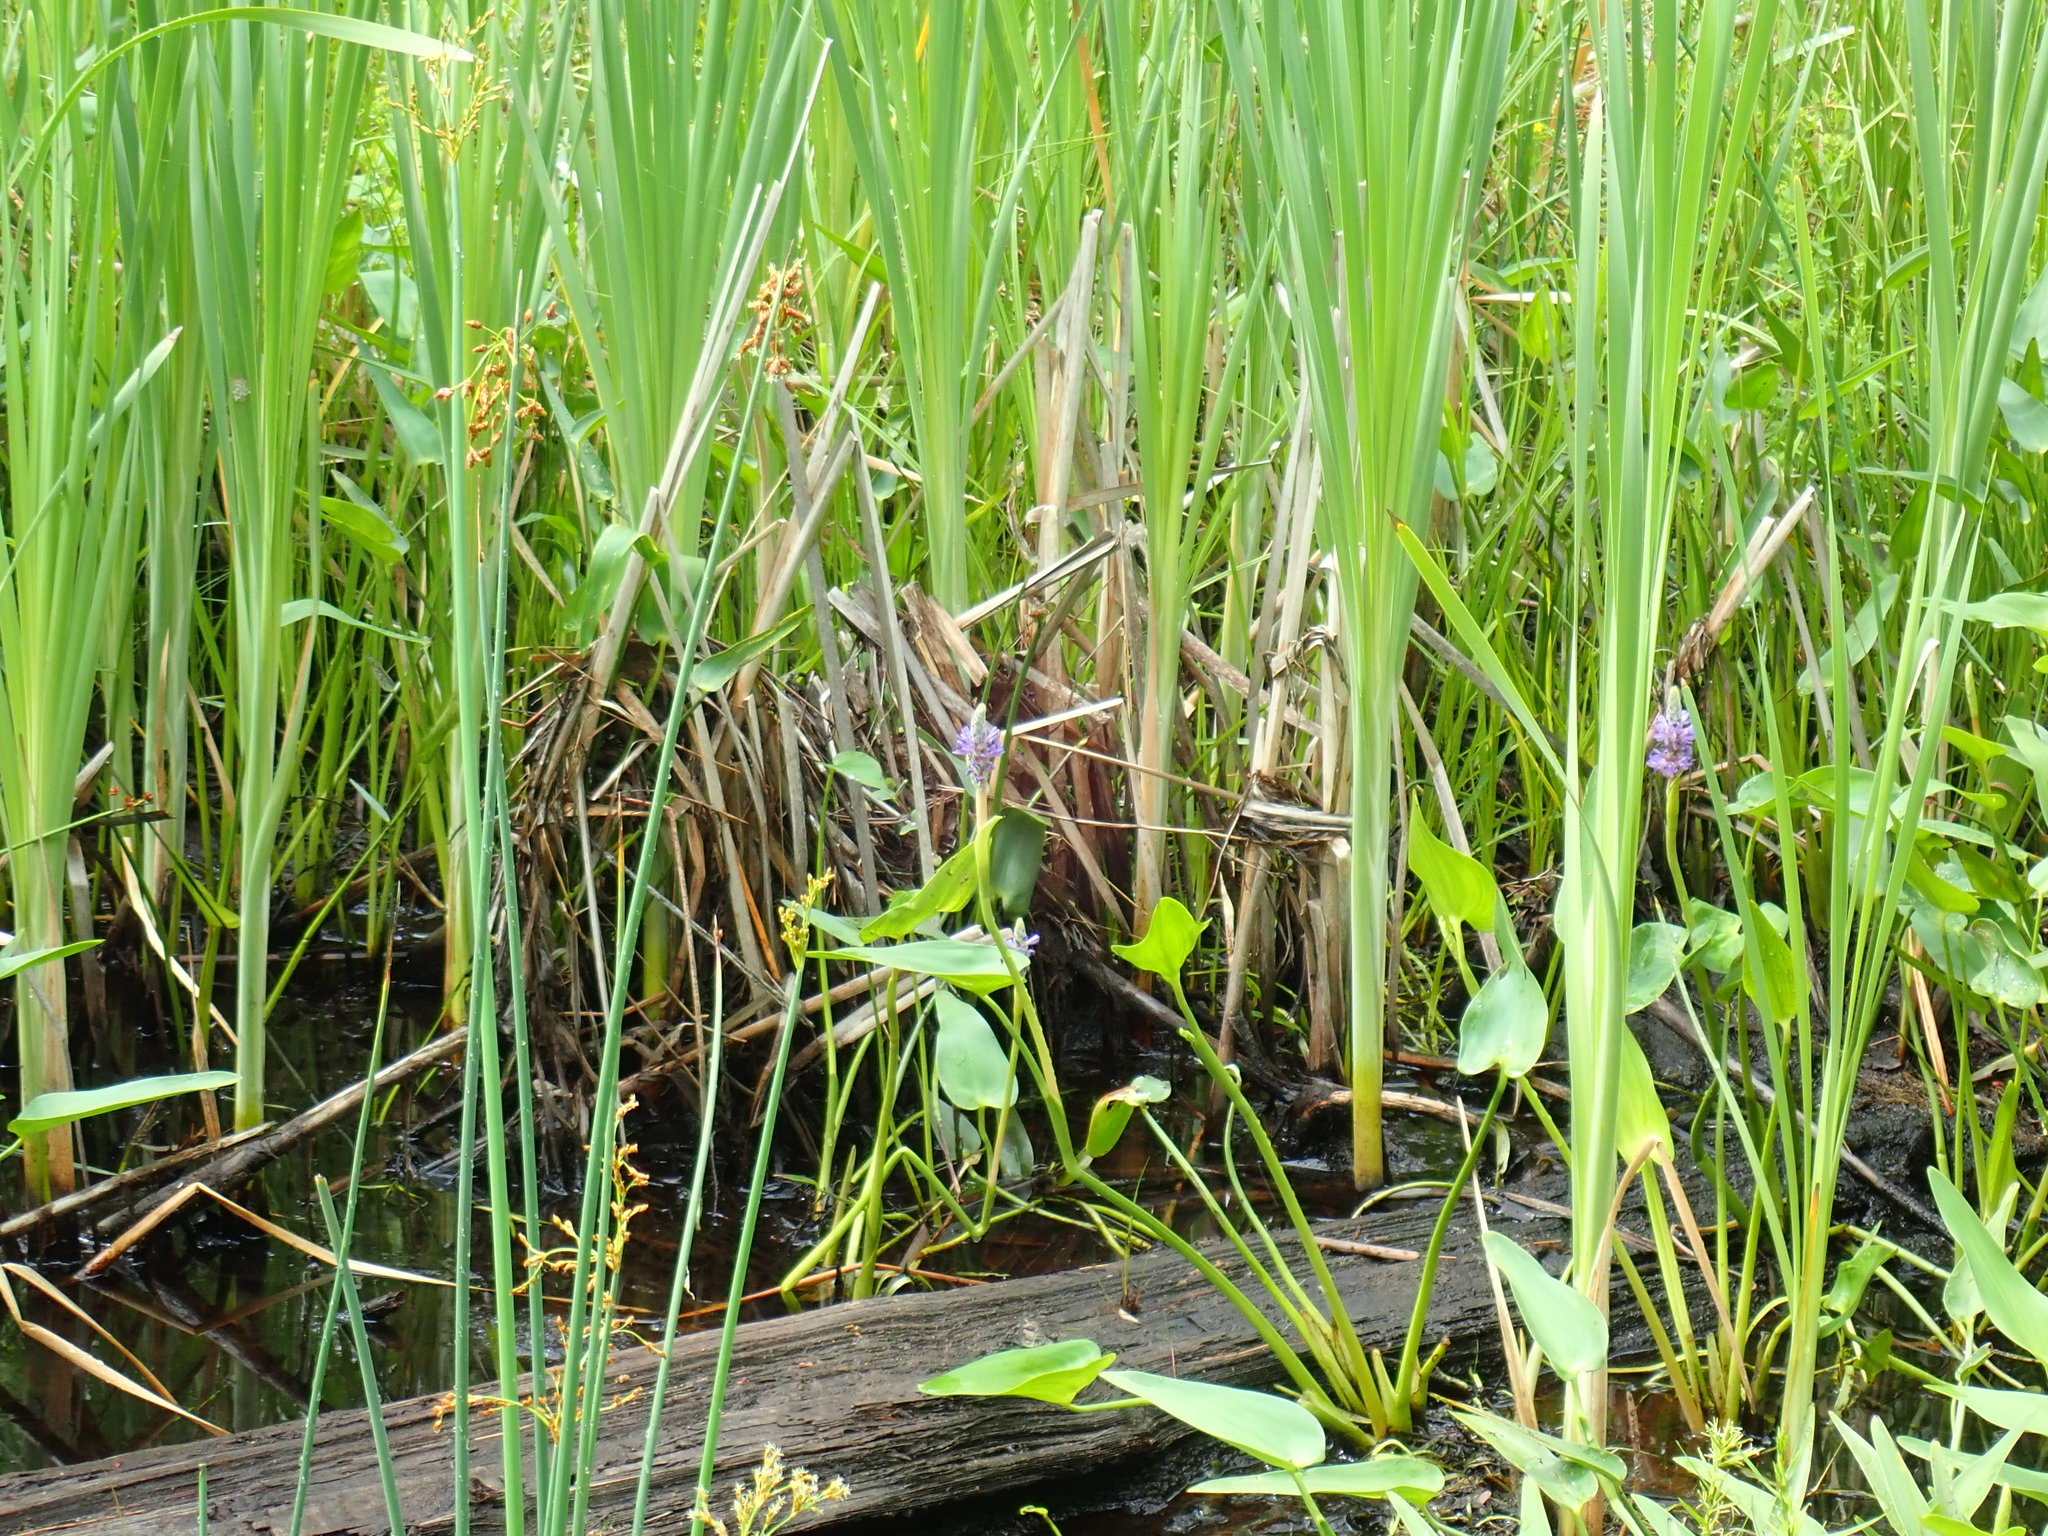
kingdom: Plantae
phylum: Tracheophyta
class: Liliopsida
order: Commelinales
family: Pontederiaceae
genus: Pontederia
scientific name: Pontederia cordata
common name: Pickerelweed
